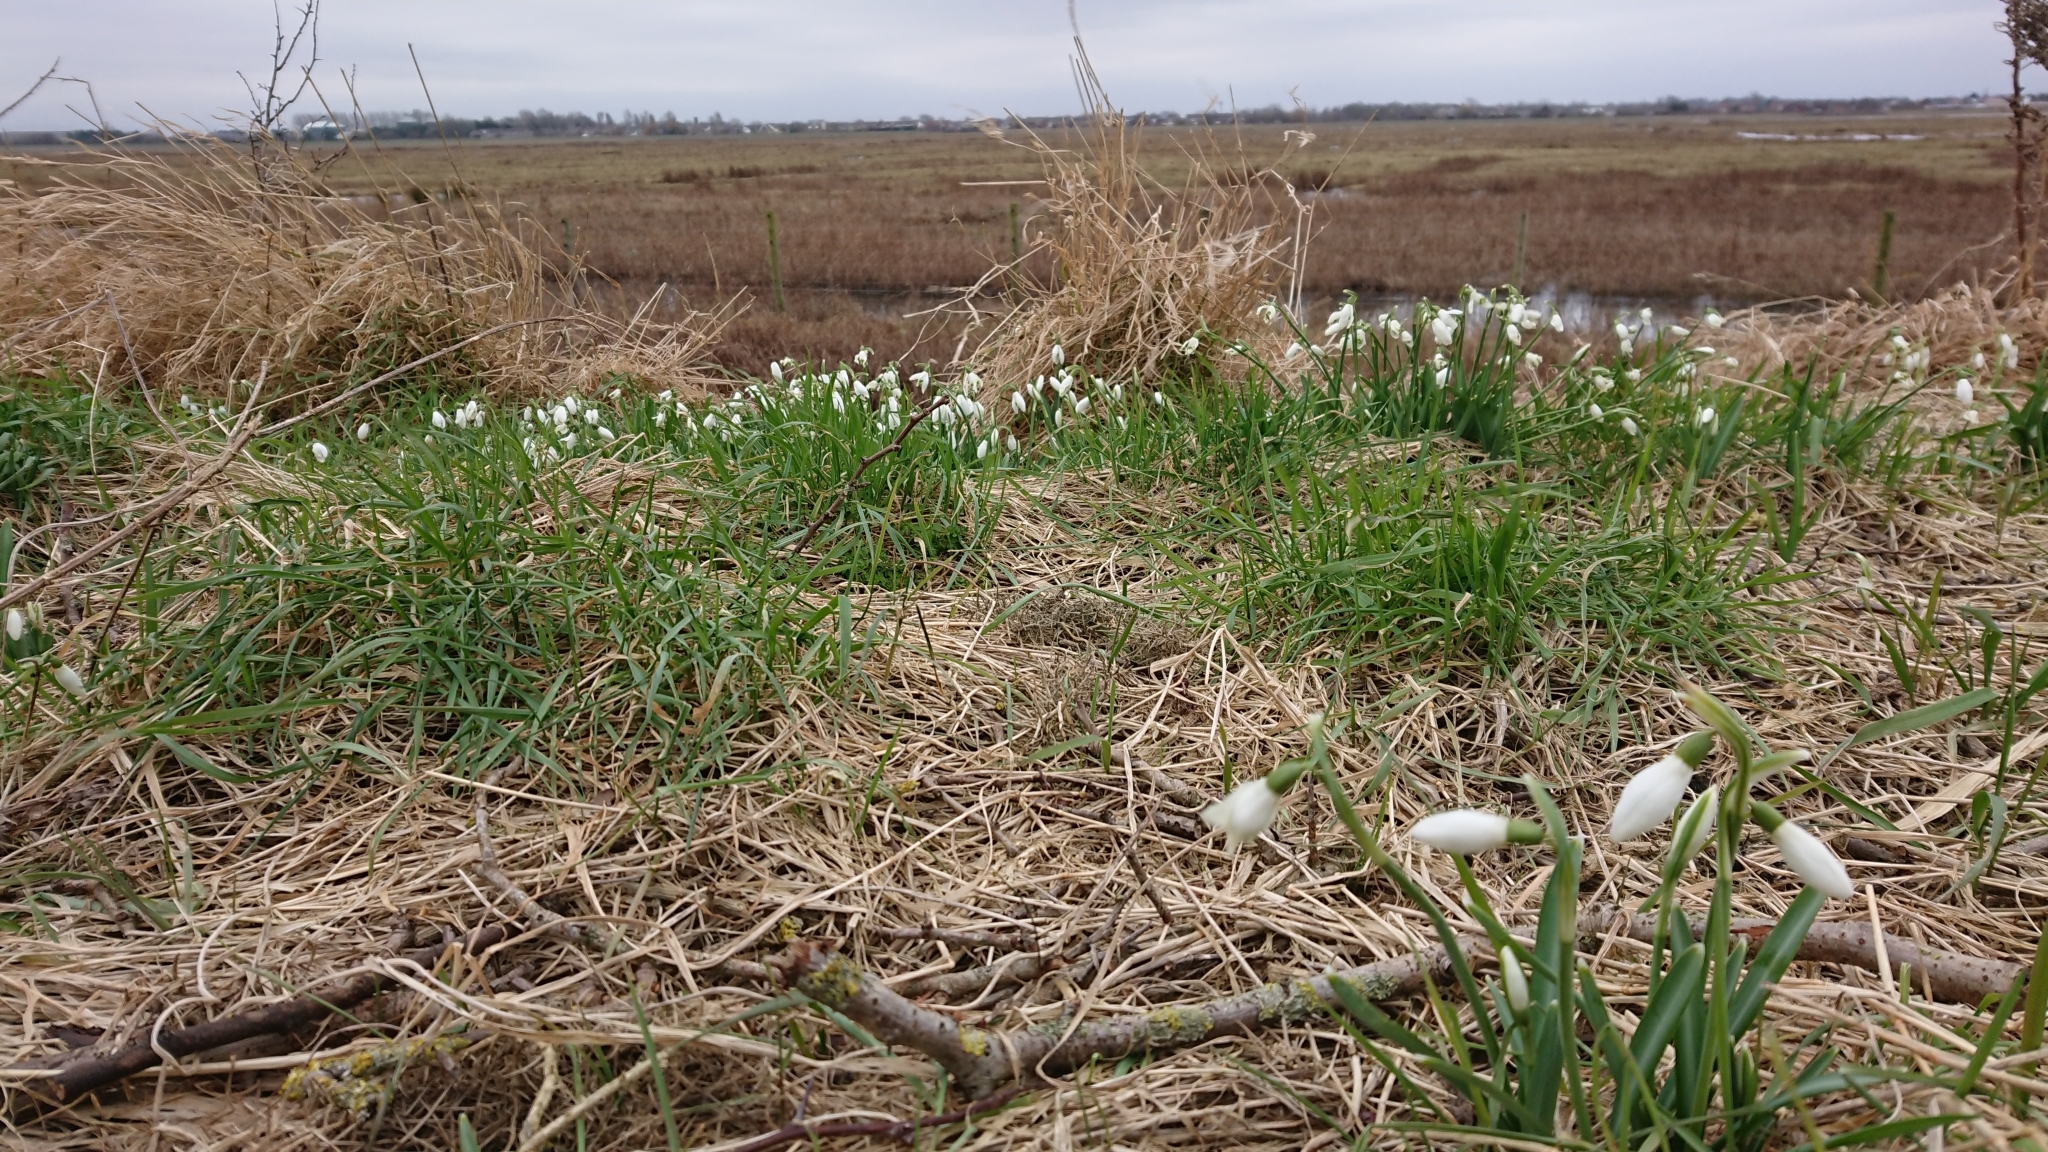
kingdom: Plantae
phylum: Tracheophyta
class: Liliopsida
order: Asparagales
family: Amaryllidaceae
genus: Galanthus
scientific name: Galanthus nivalis
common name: Snowdrop
